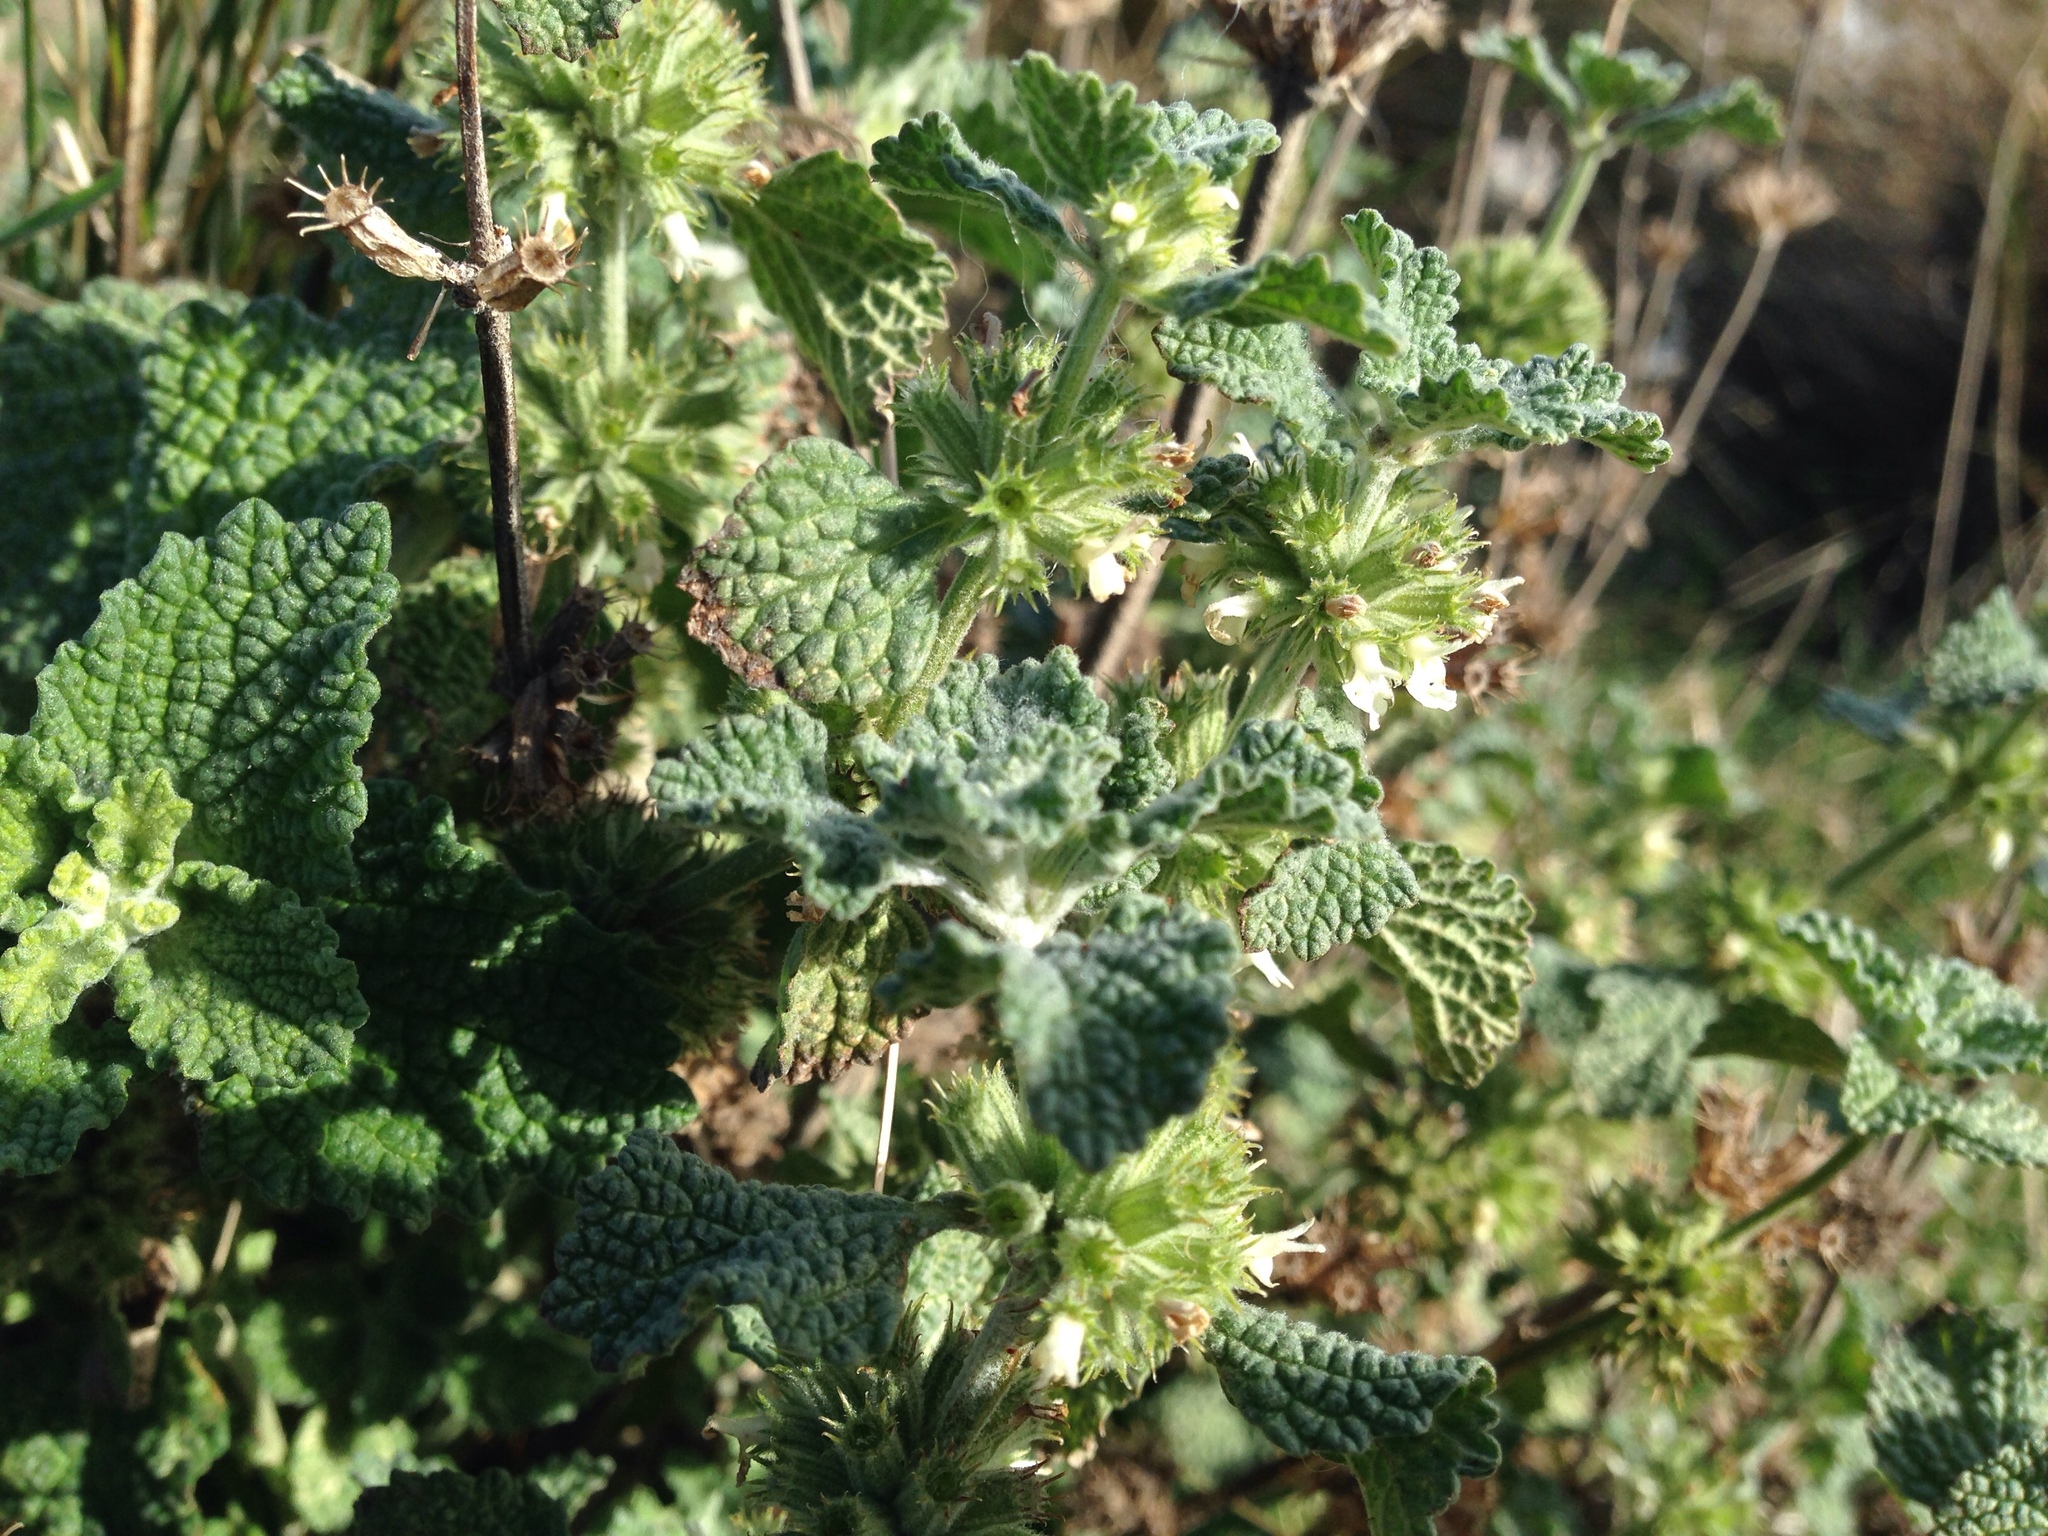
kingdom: Plantae
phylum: Tracheophyta
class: Magnoliopsida
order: Lamiales
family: Lamiaceae
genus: Marrubium
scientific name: Marrubium vulgare
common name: Horehound
